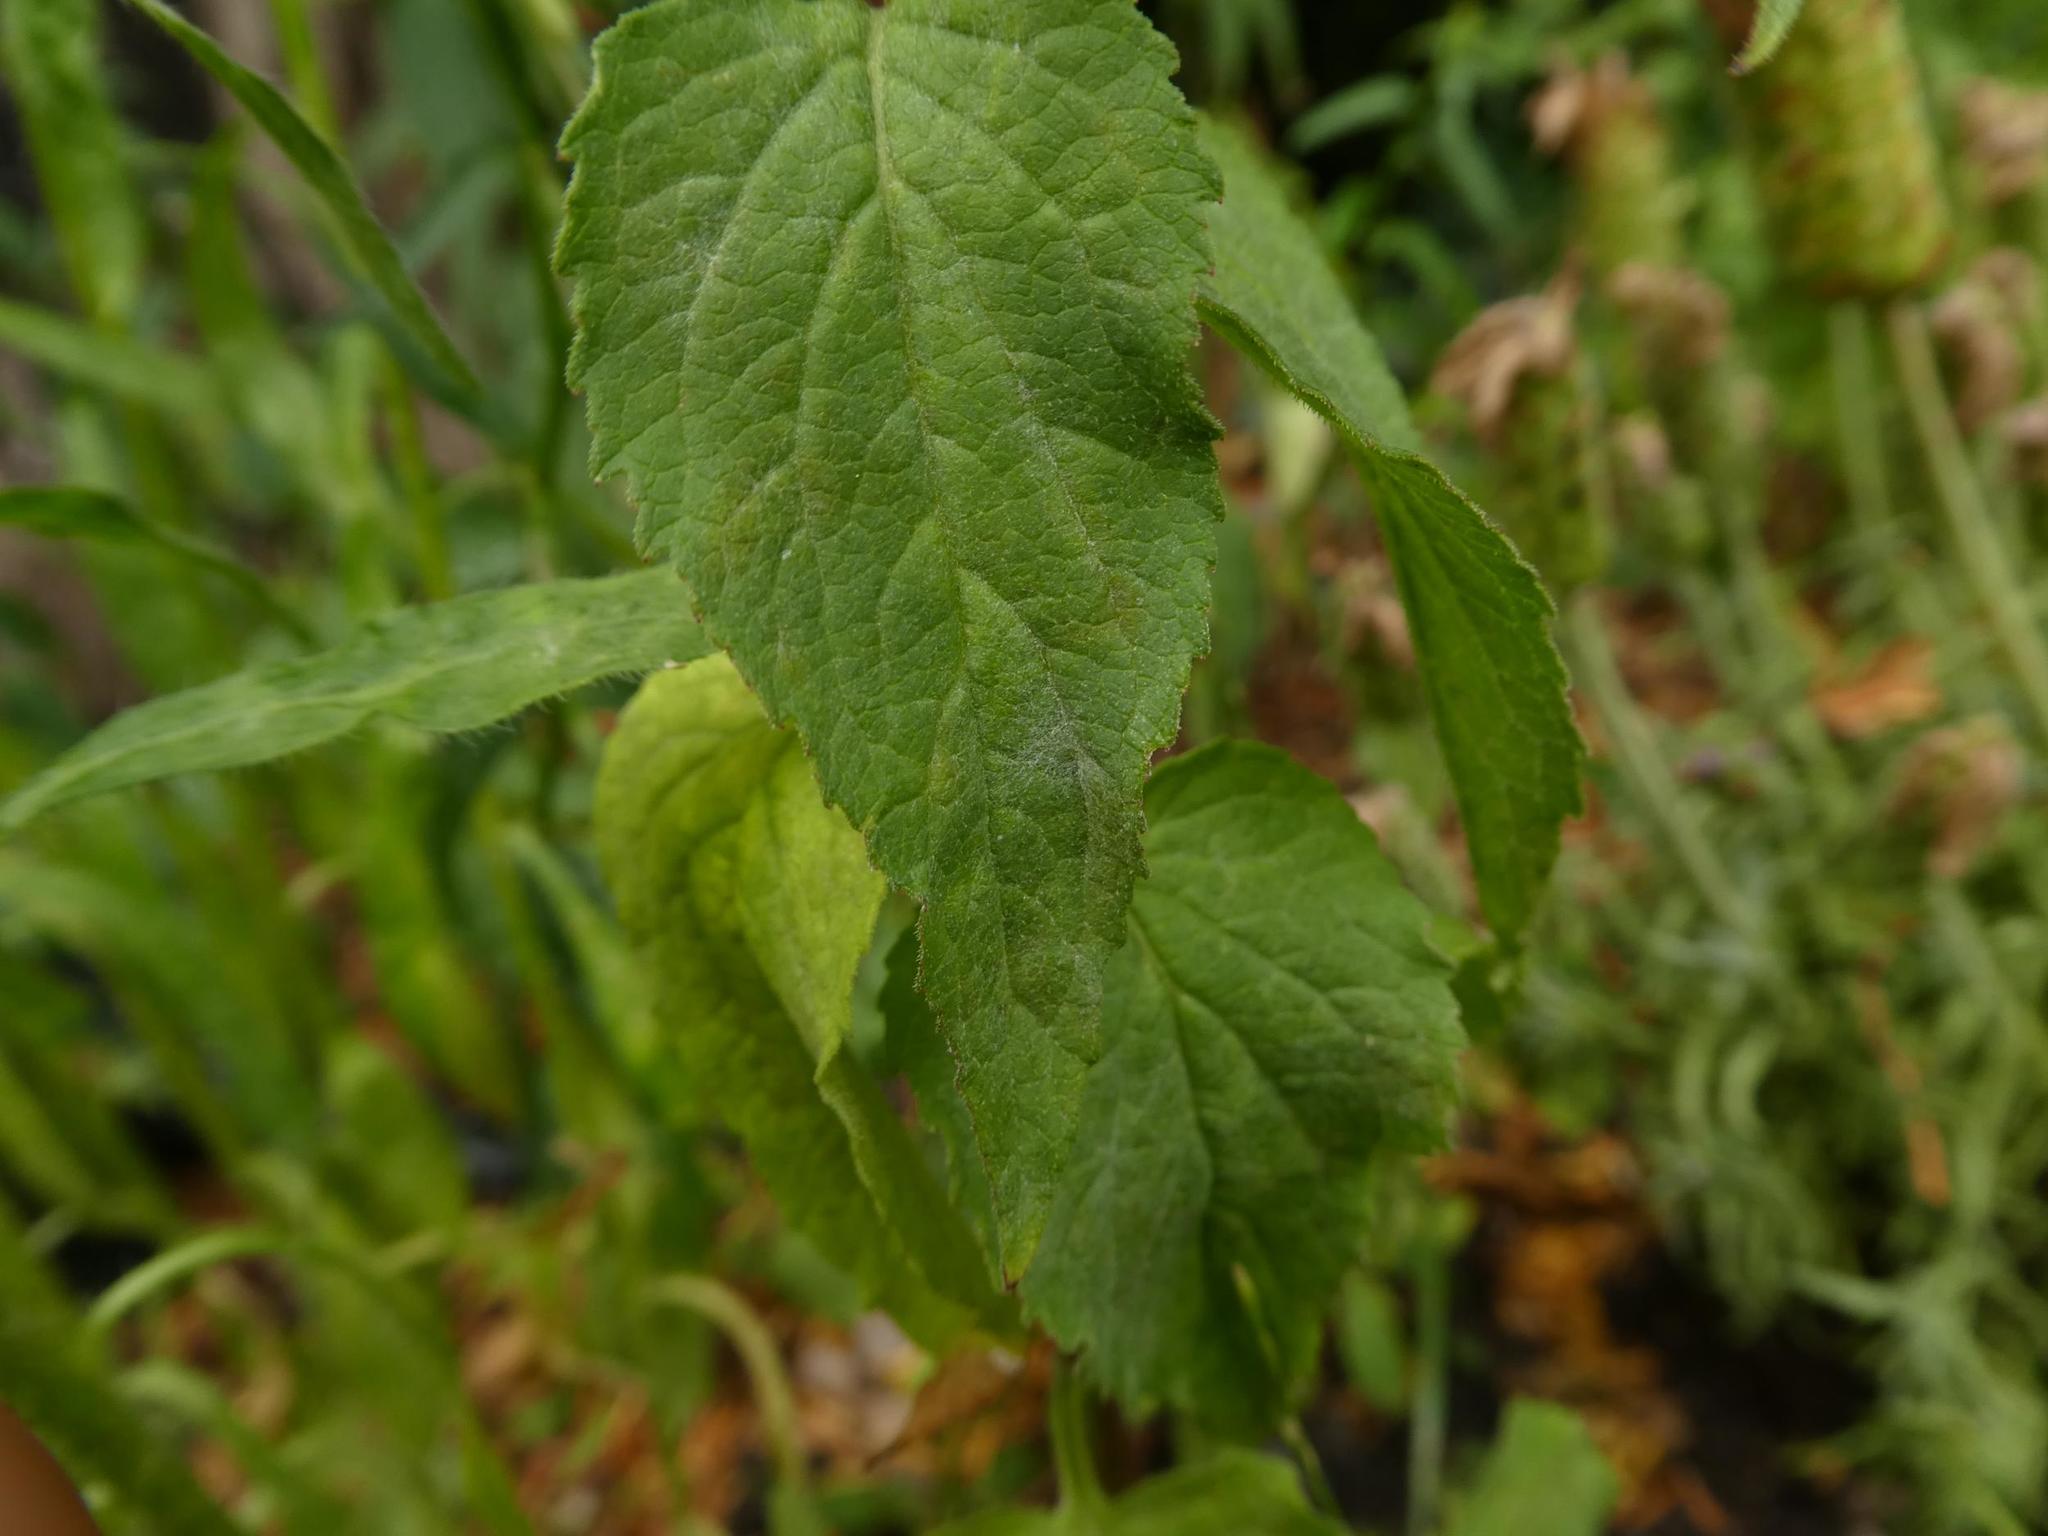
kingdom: Fungi
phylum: Ascomycota
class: Leotiomycetes
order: Helotiales
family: Erysiphaceae
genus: Golovinomyces
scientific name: Golovinomyces bolayi
